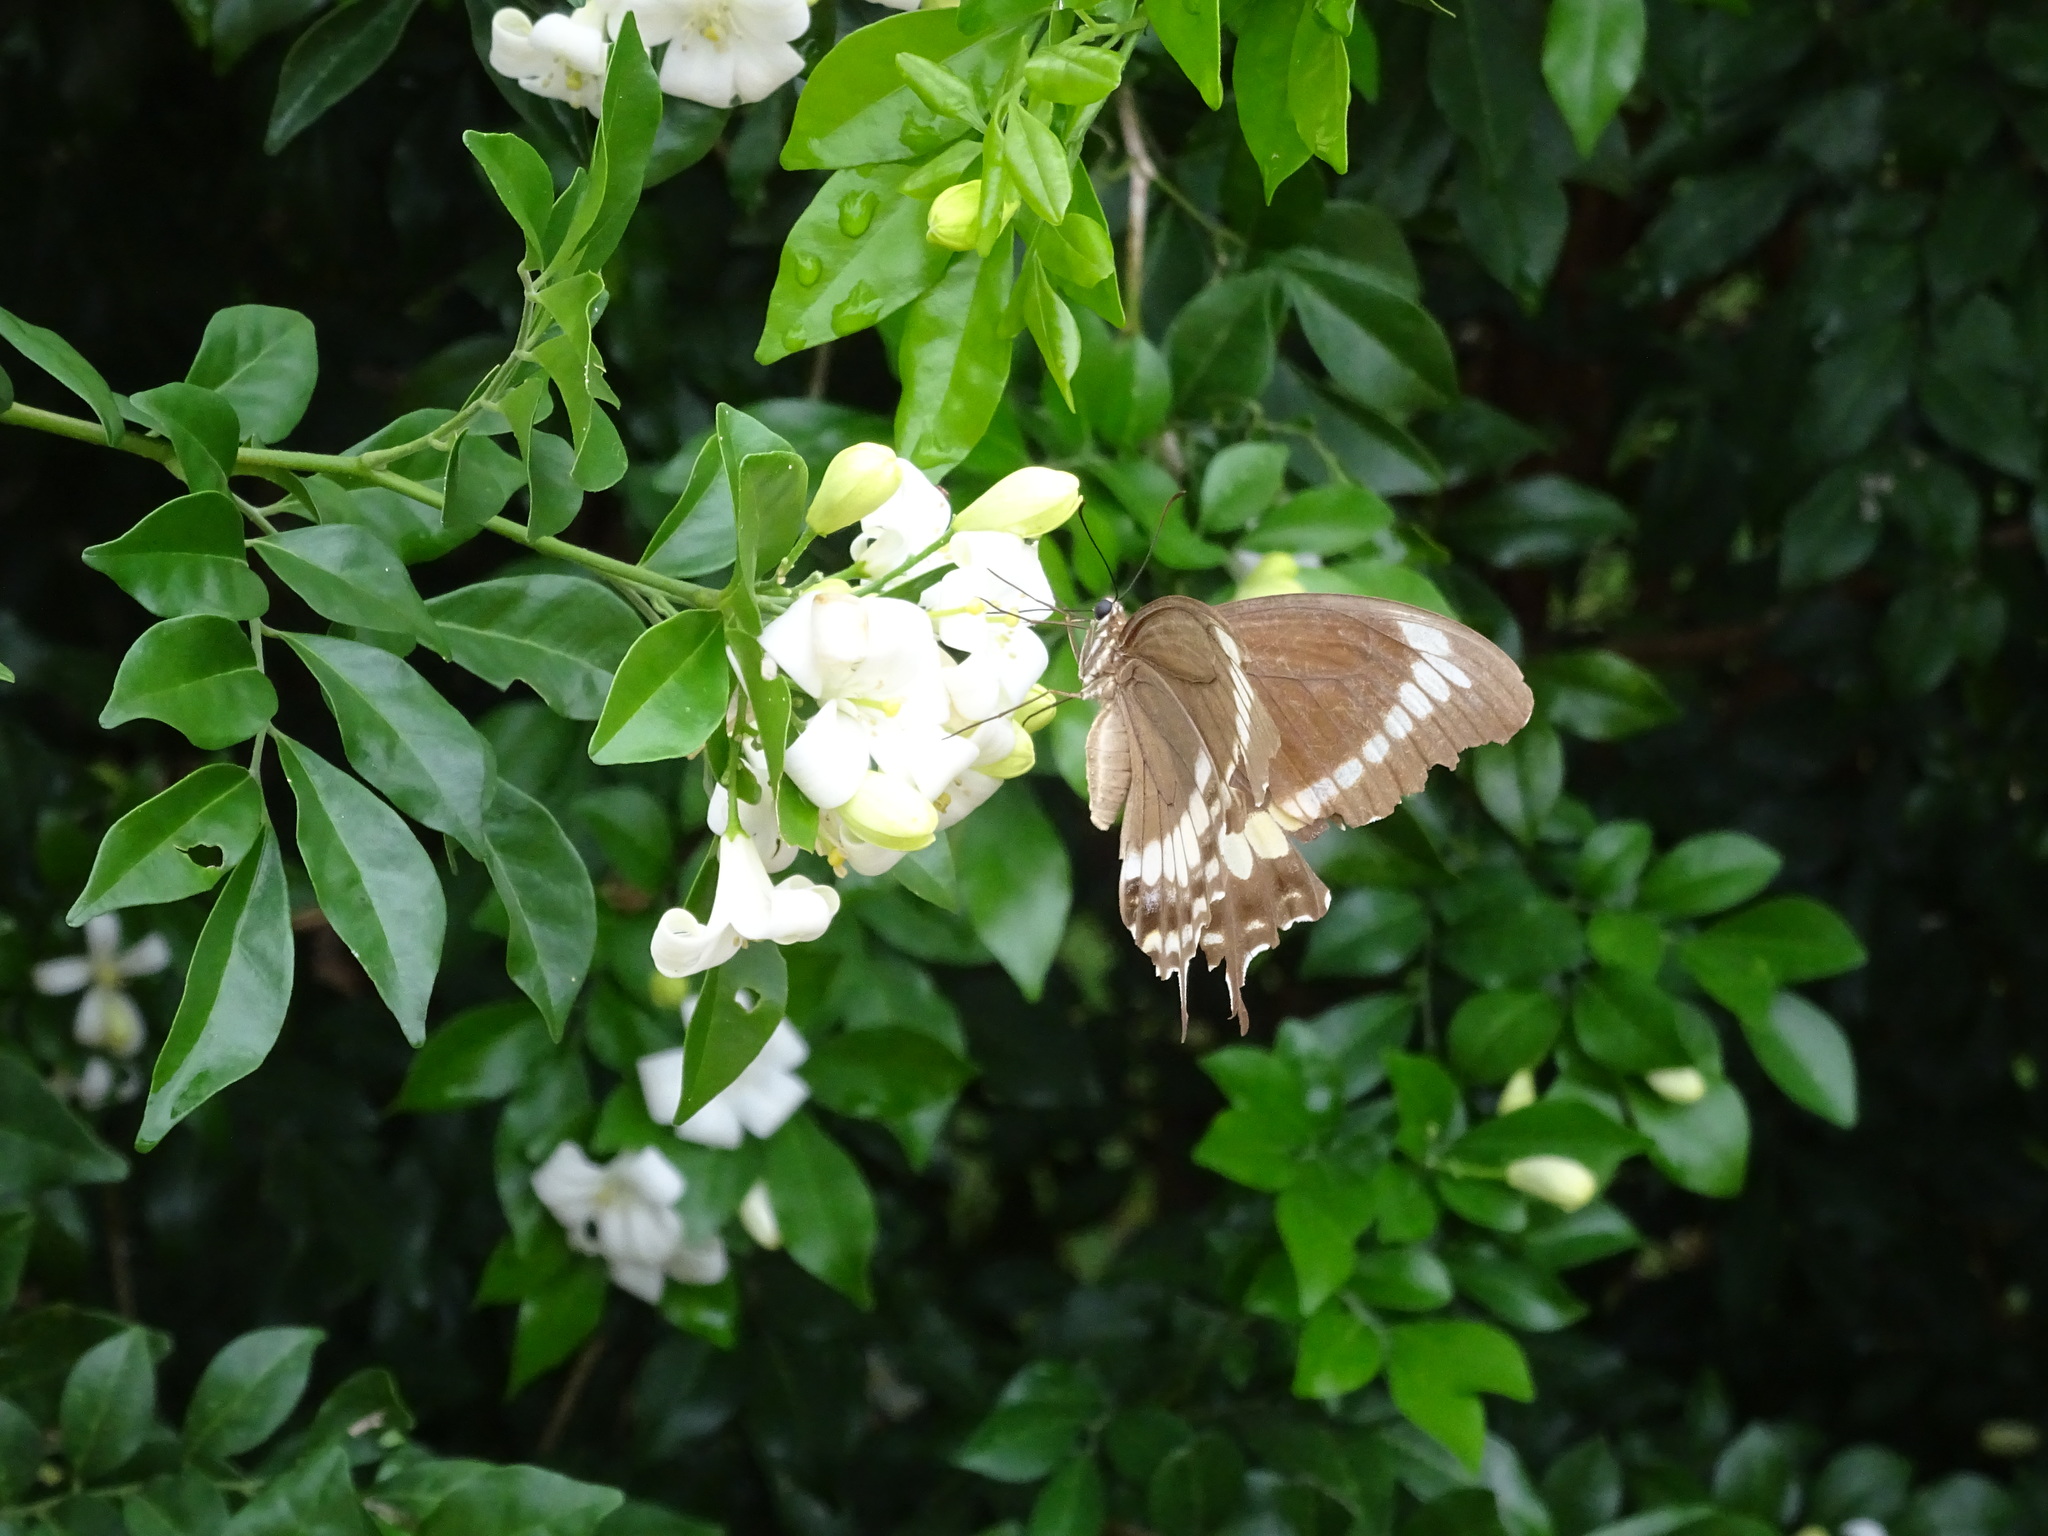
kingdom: Animalia
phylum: Arthropoda
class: Insecta
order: Lepidoptera
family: Papilionidae
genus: Papilio
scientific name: Papilio canopus
